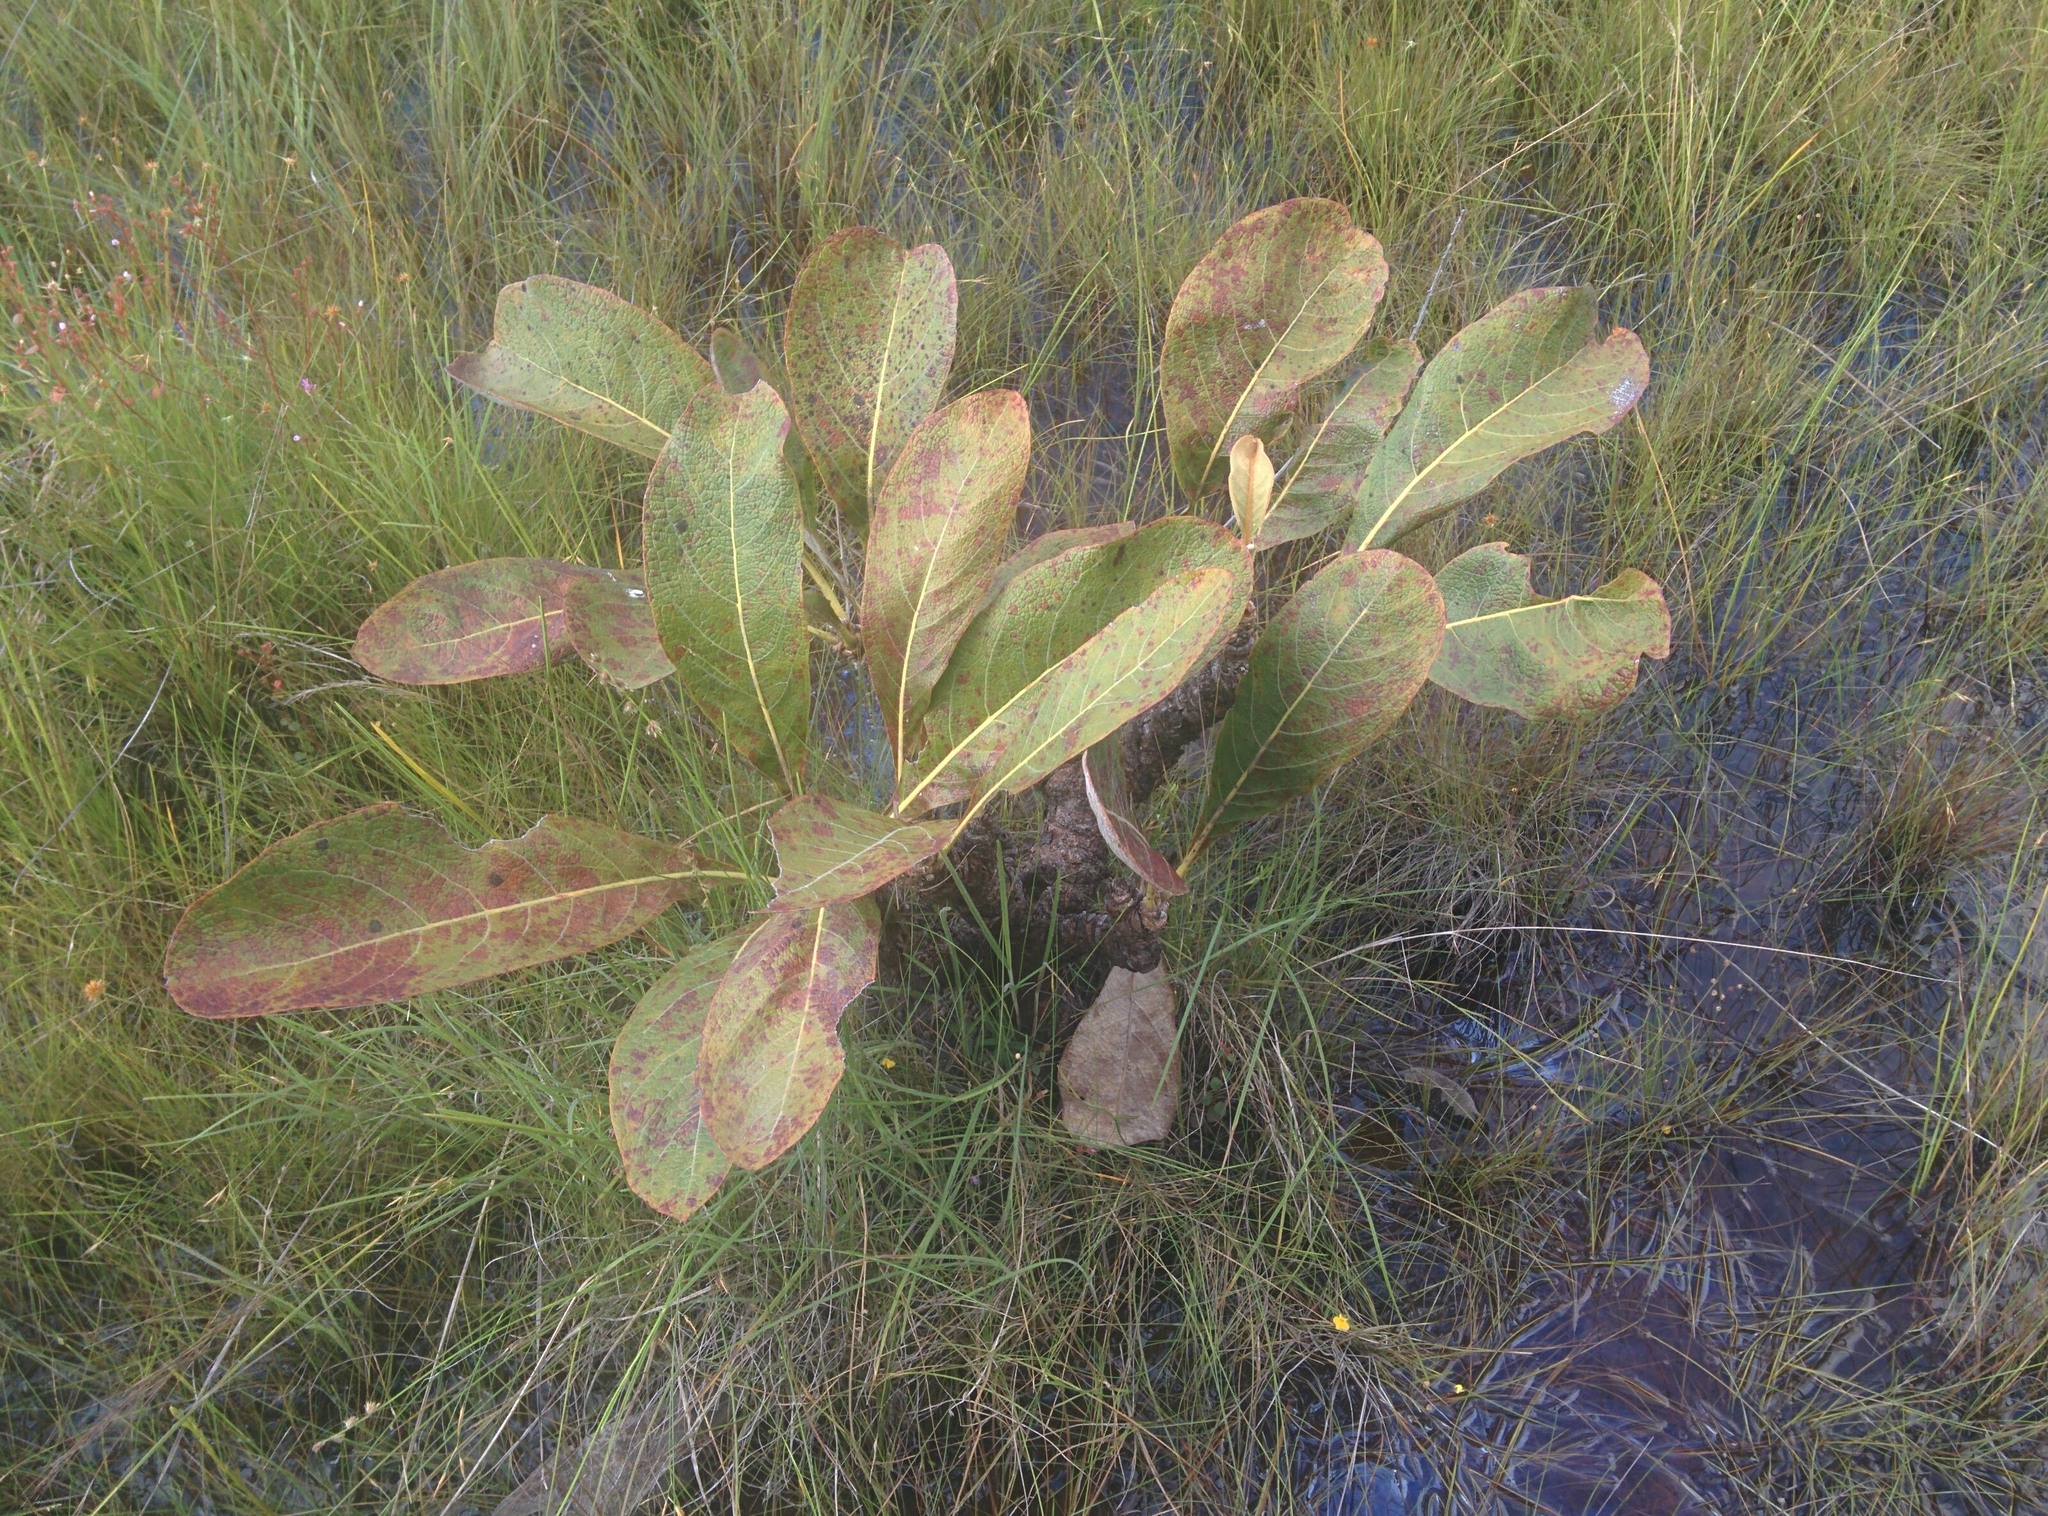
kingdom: Plantae
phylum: Tracheophyta
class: Magnoliopsida
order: Malpighiales
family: Malpighiaceae
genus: Byrsonima
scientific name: Byrsonima verbascifolia
